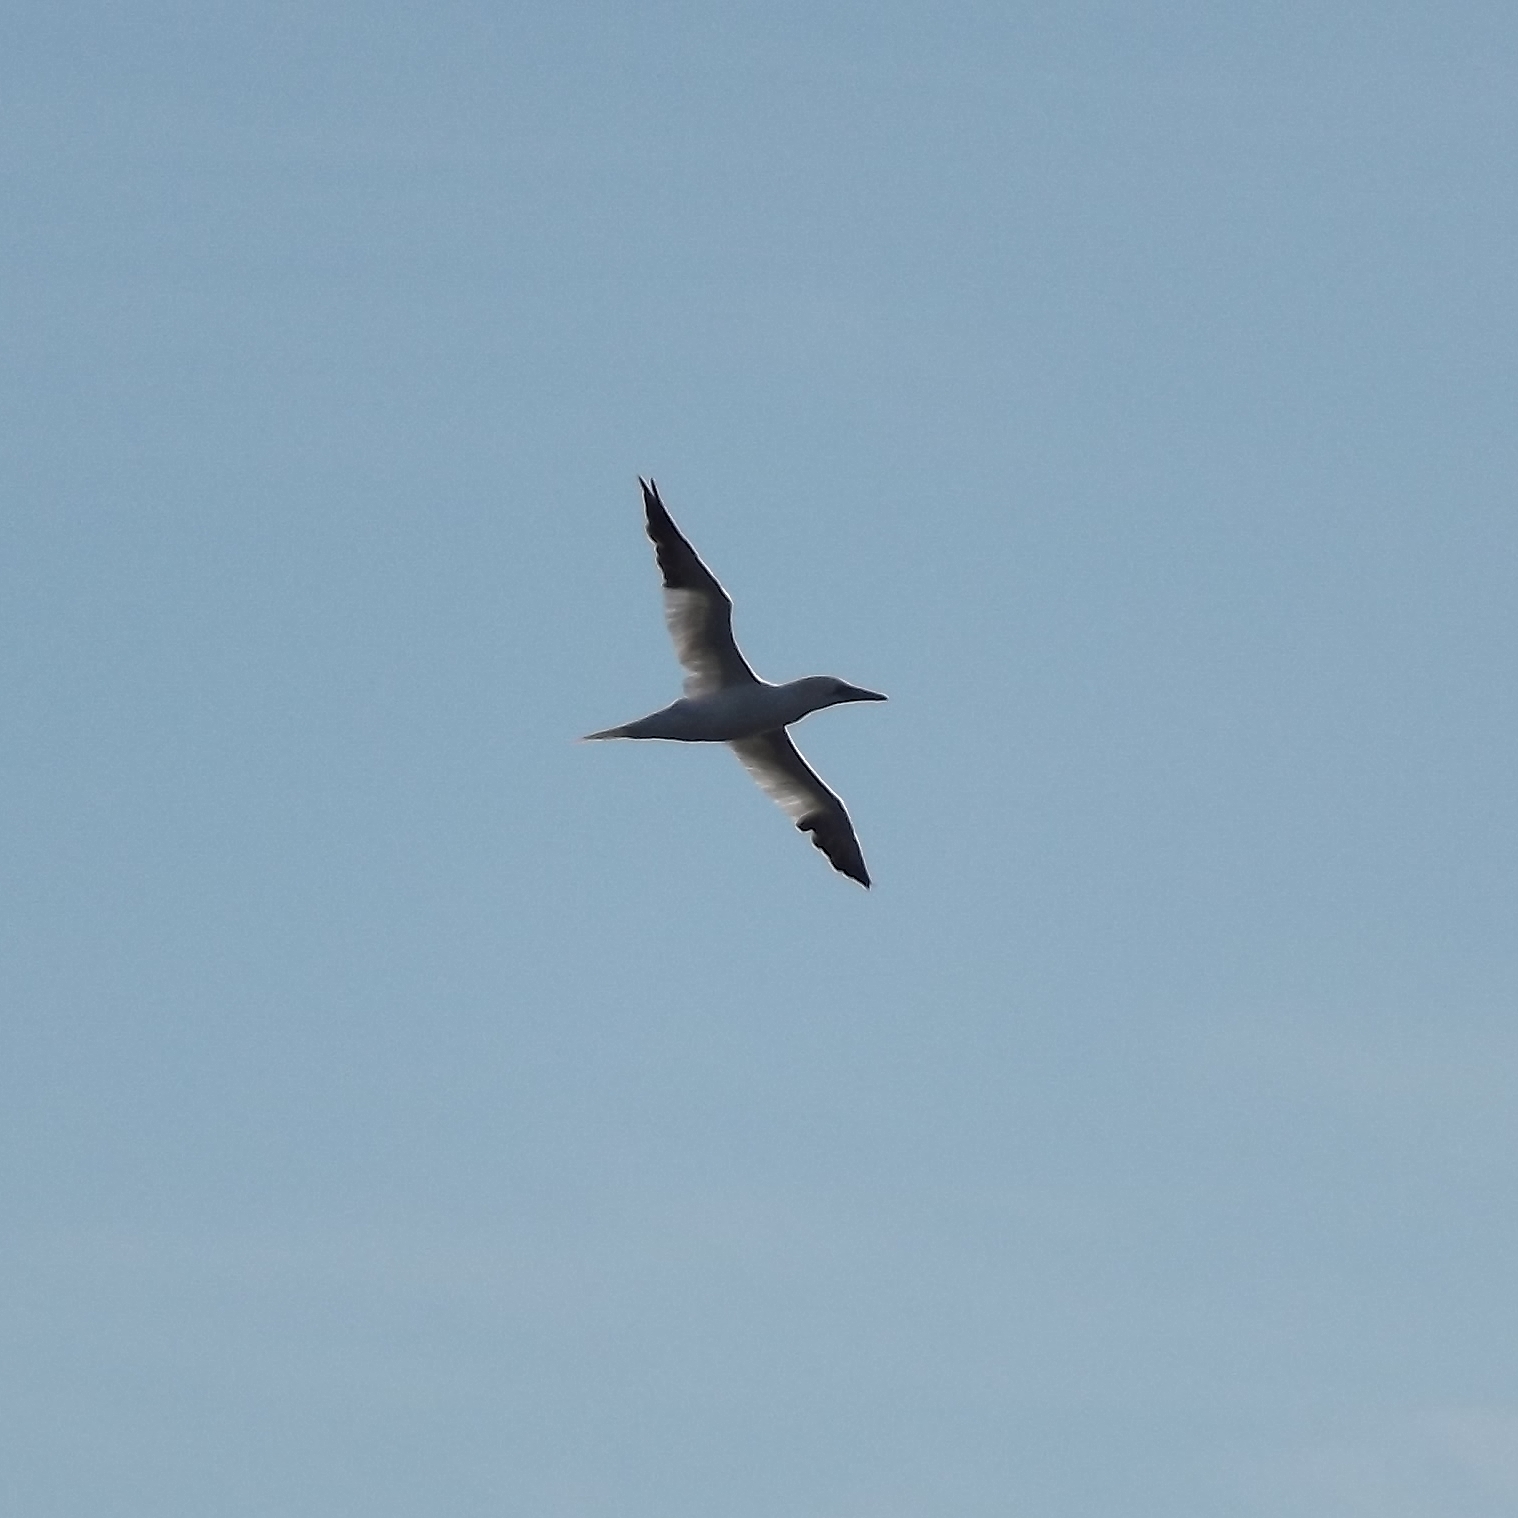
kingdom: Animalia
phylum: Chordata
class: Aves
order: Suliformes
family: Sulidae
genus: Morus
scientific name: Morus bassanus
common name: Northern gannet
